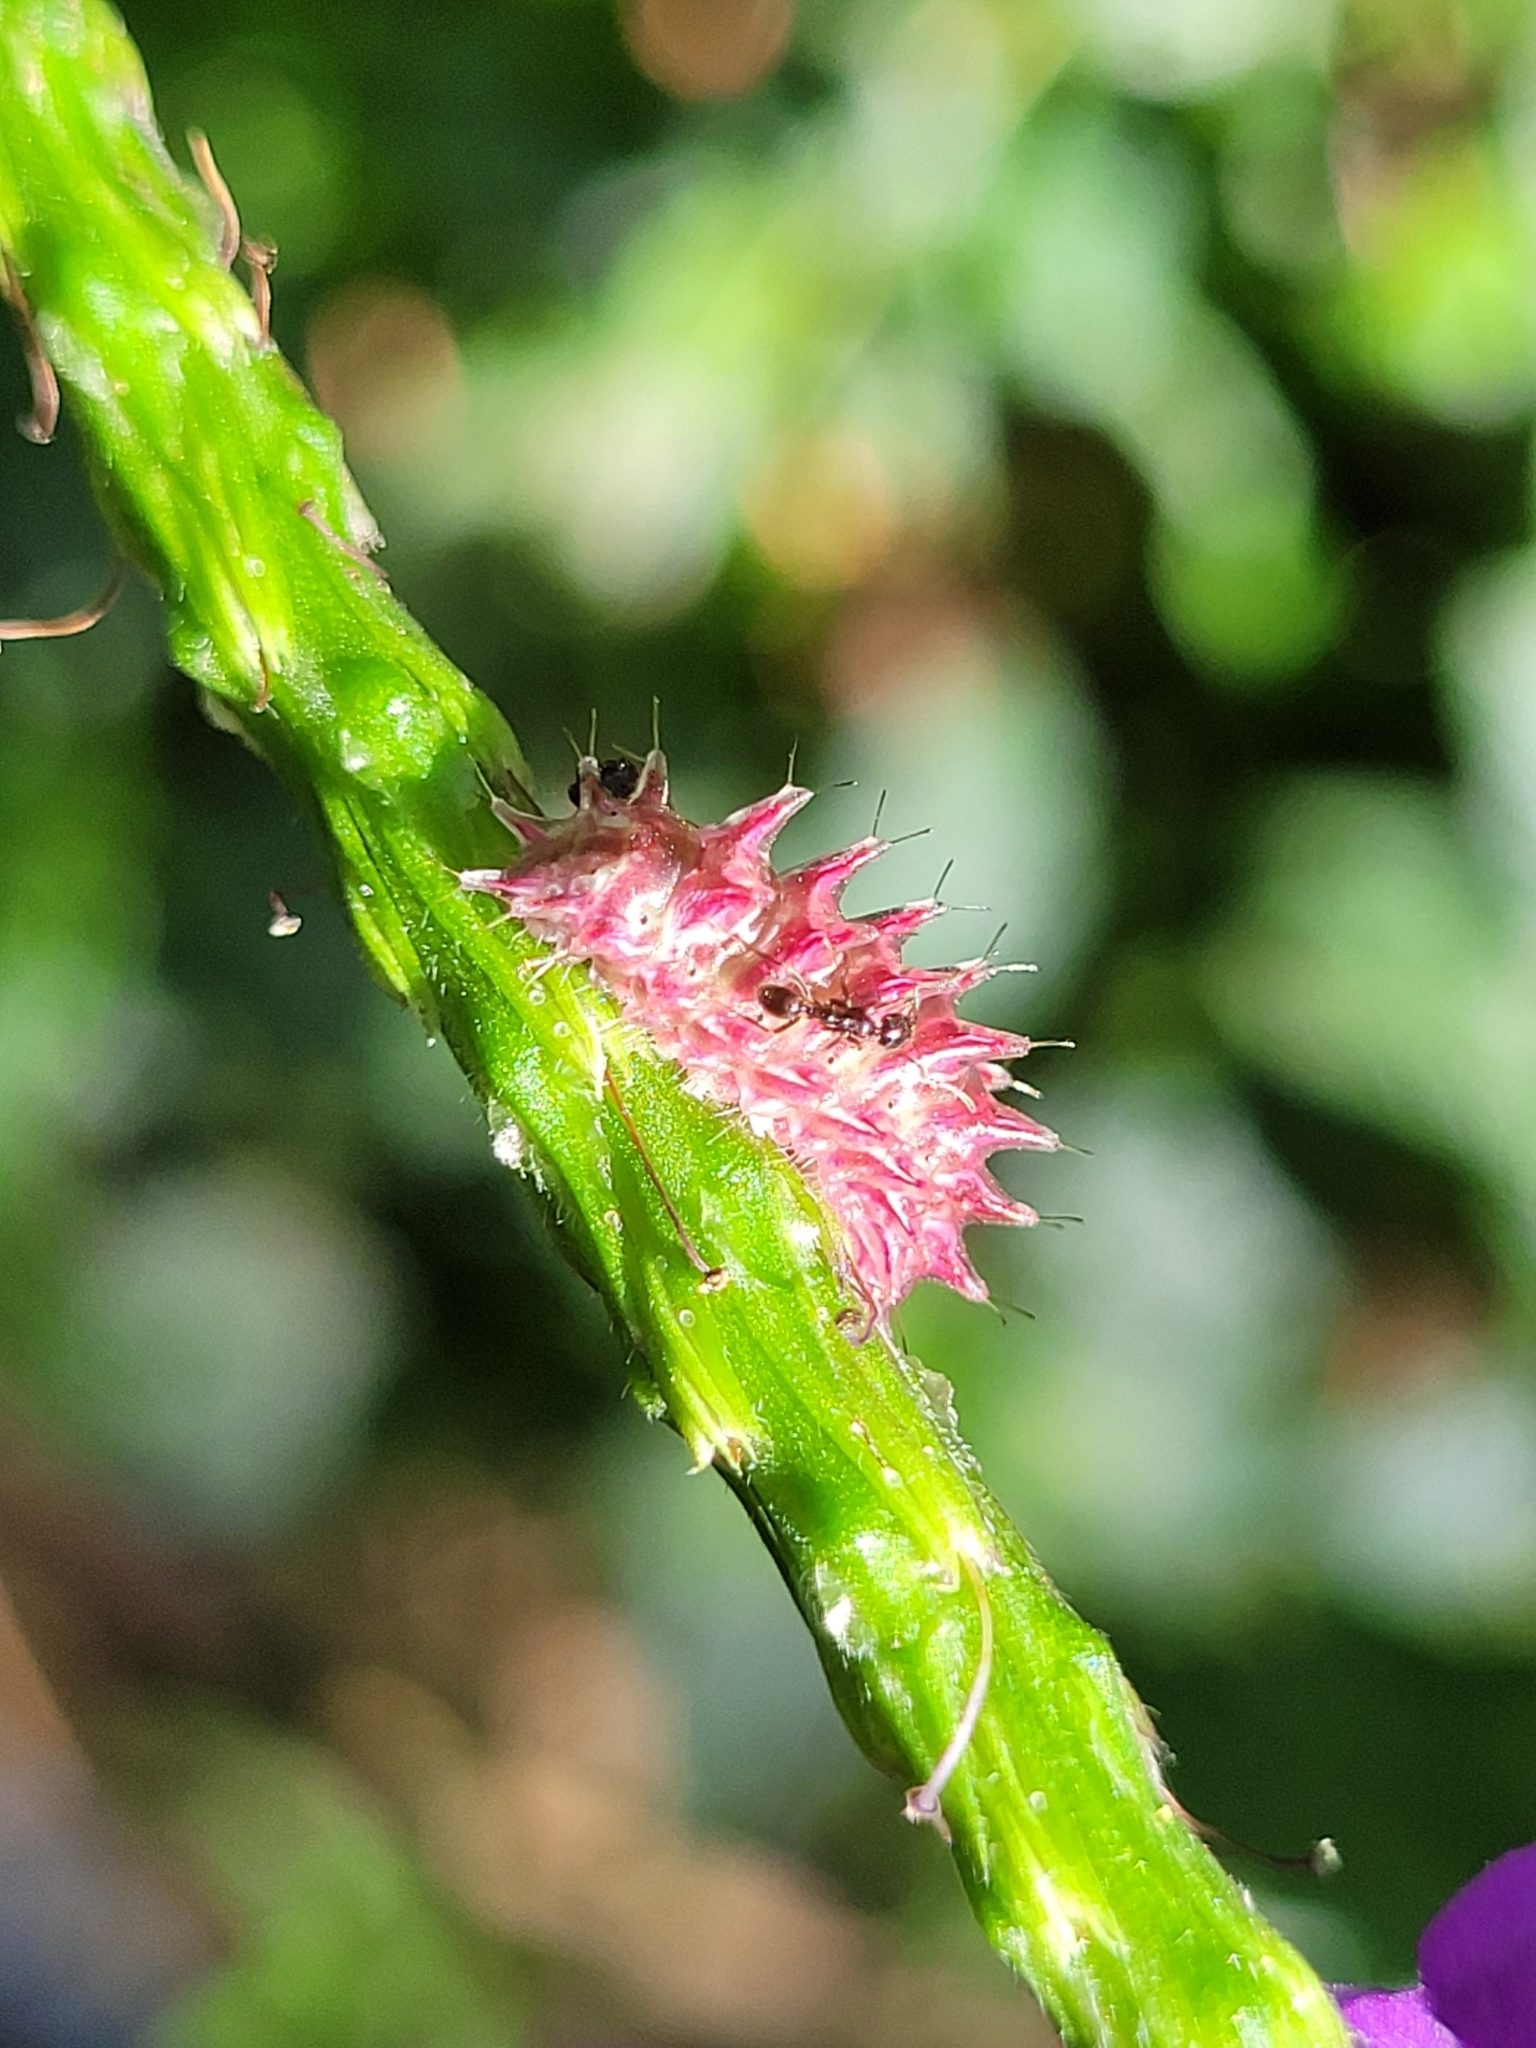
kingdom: Animalia
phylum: Arthropoda
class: Insecta
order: Lepidoptera
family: Lycaenidae
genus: Rekoa
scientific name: Rekoa palegon
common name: Gold-bordered hairstreak
